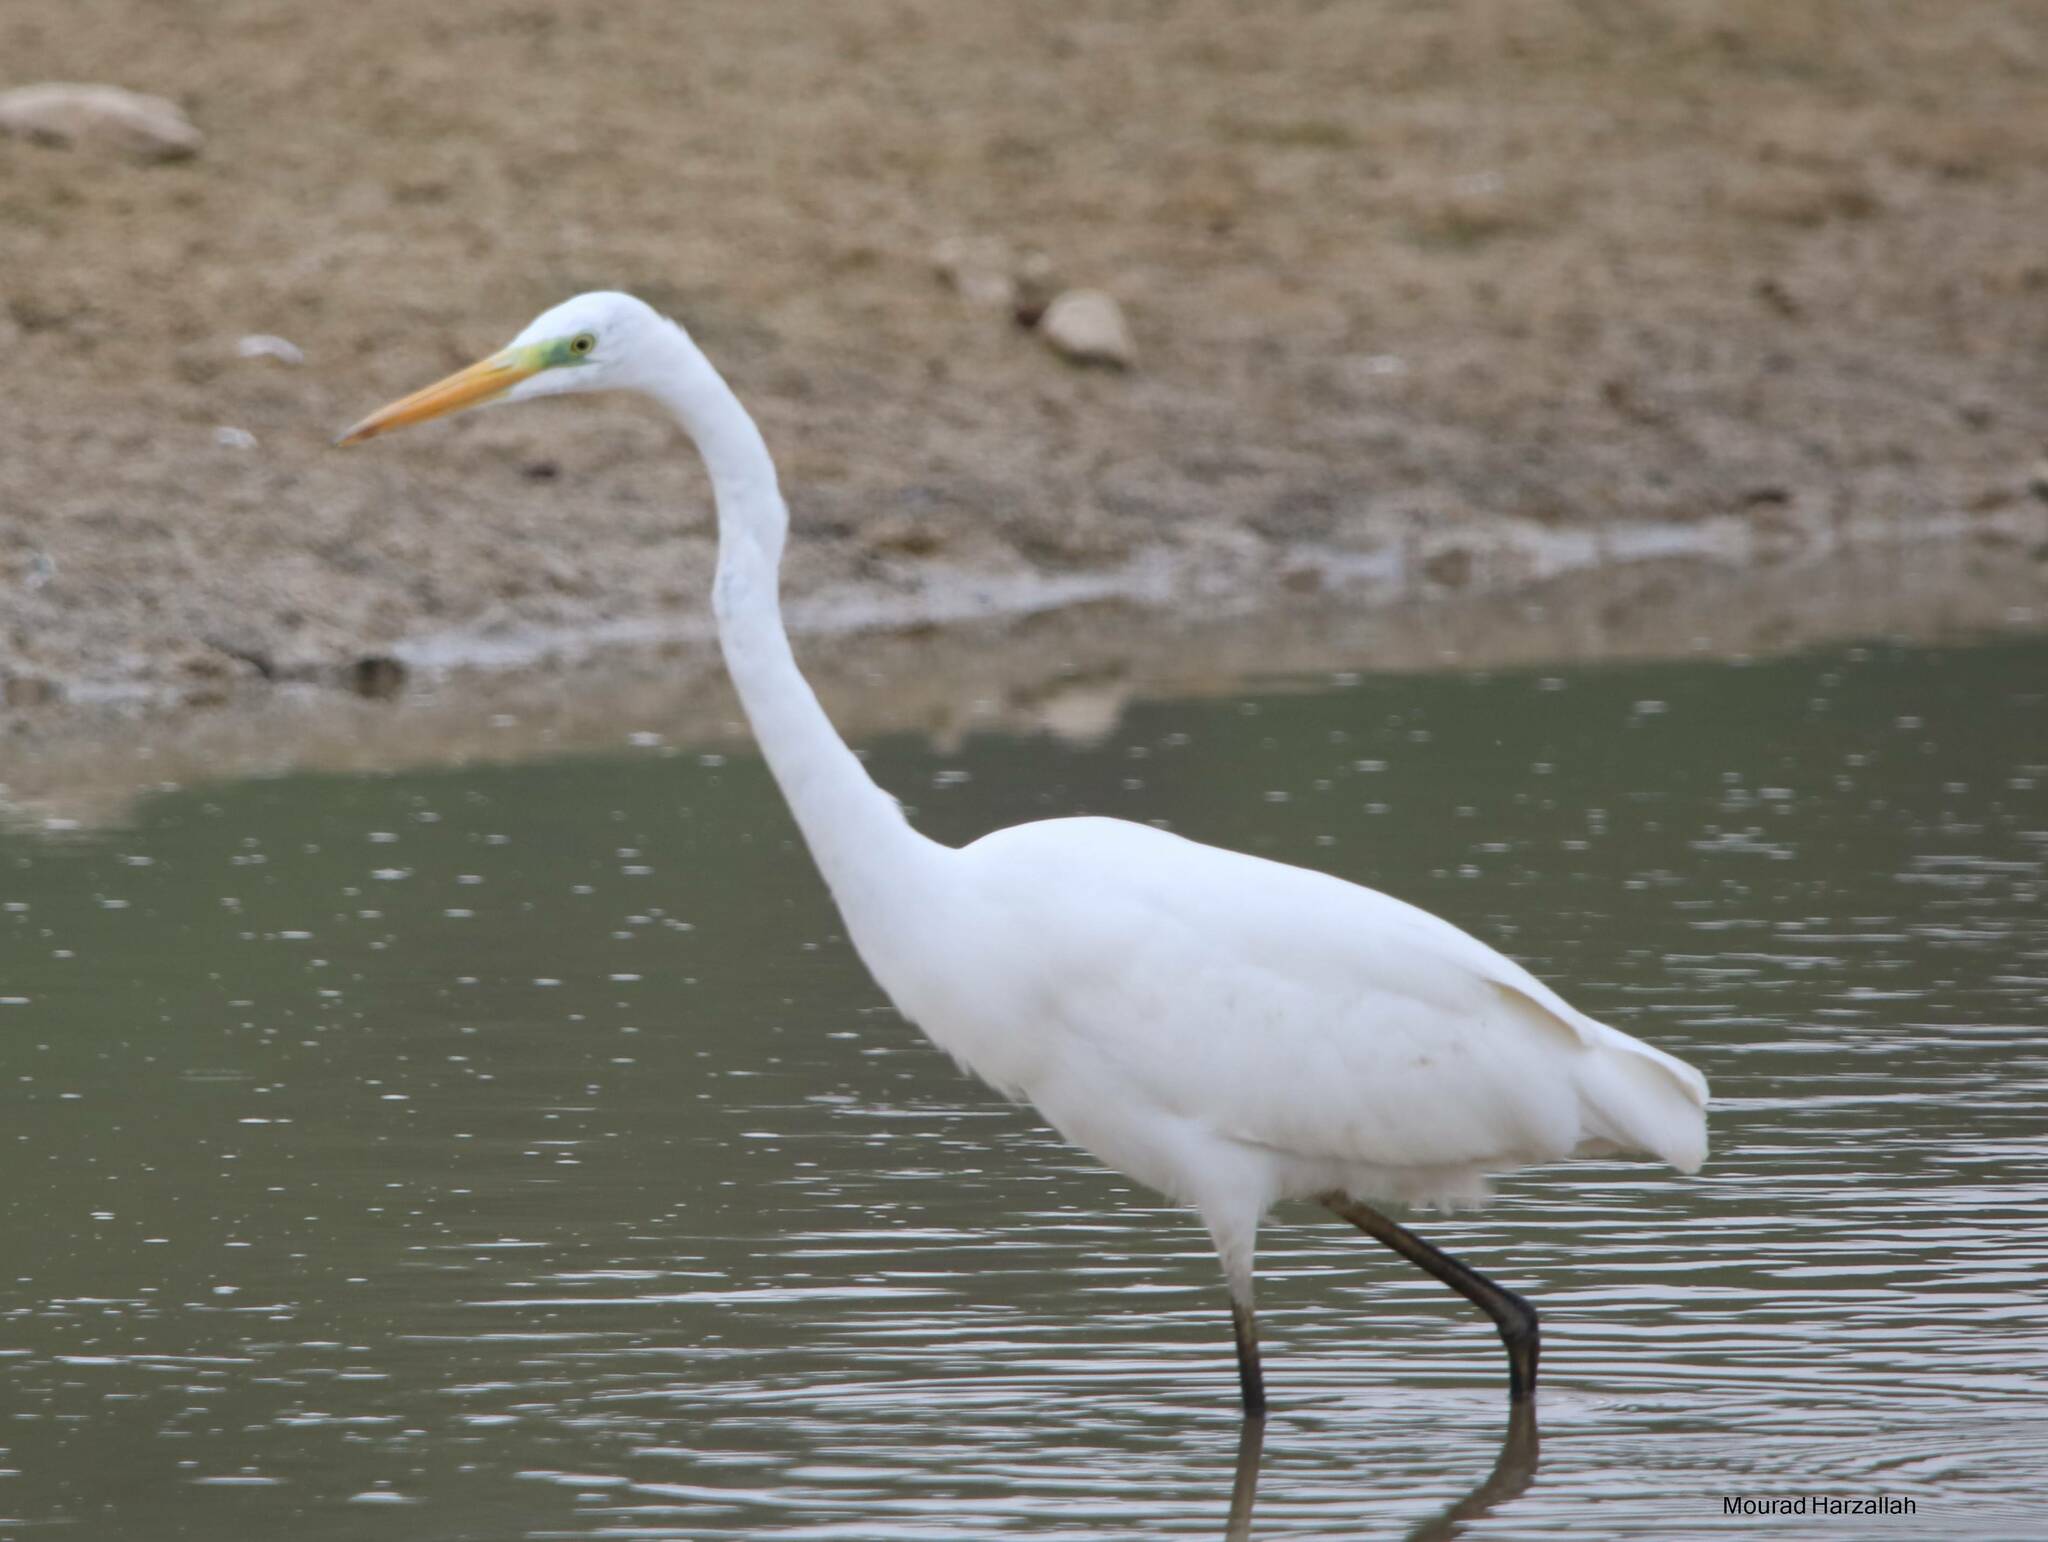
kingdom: Animalia
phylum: Chordata
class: Aves
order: Pelecaniformes
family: Ardeidae
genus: Ardea
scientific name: Ardea alba
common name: Great egret
